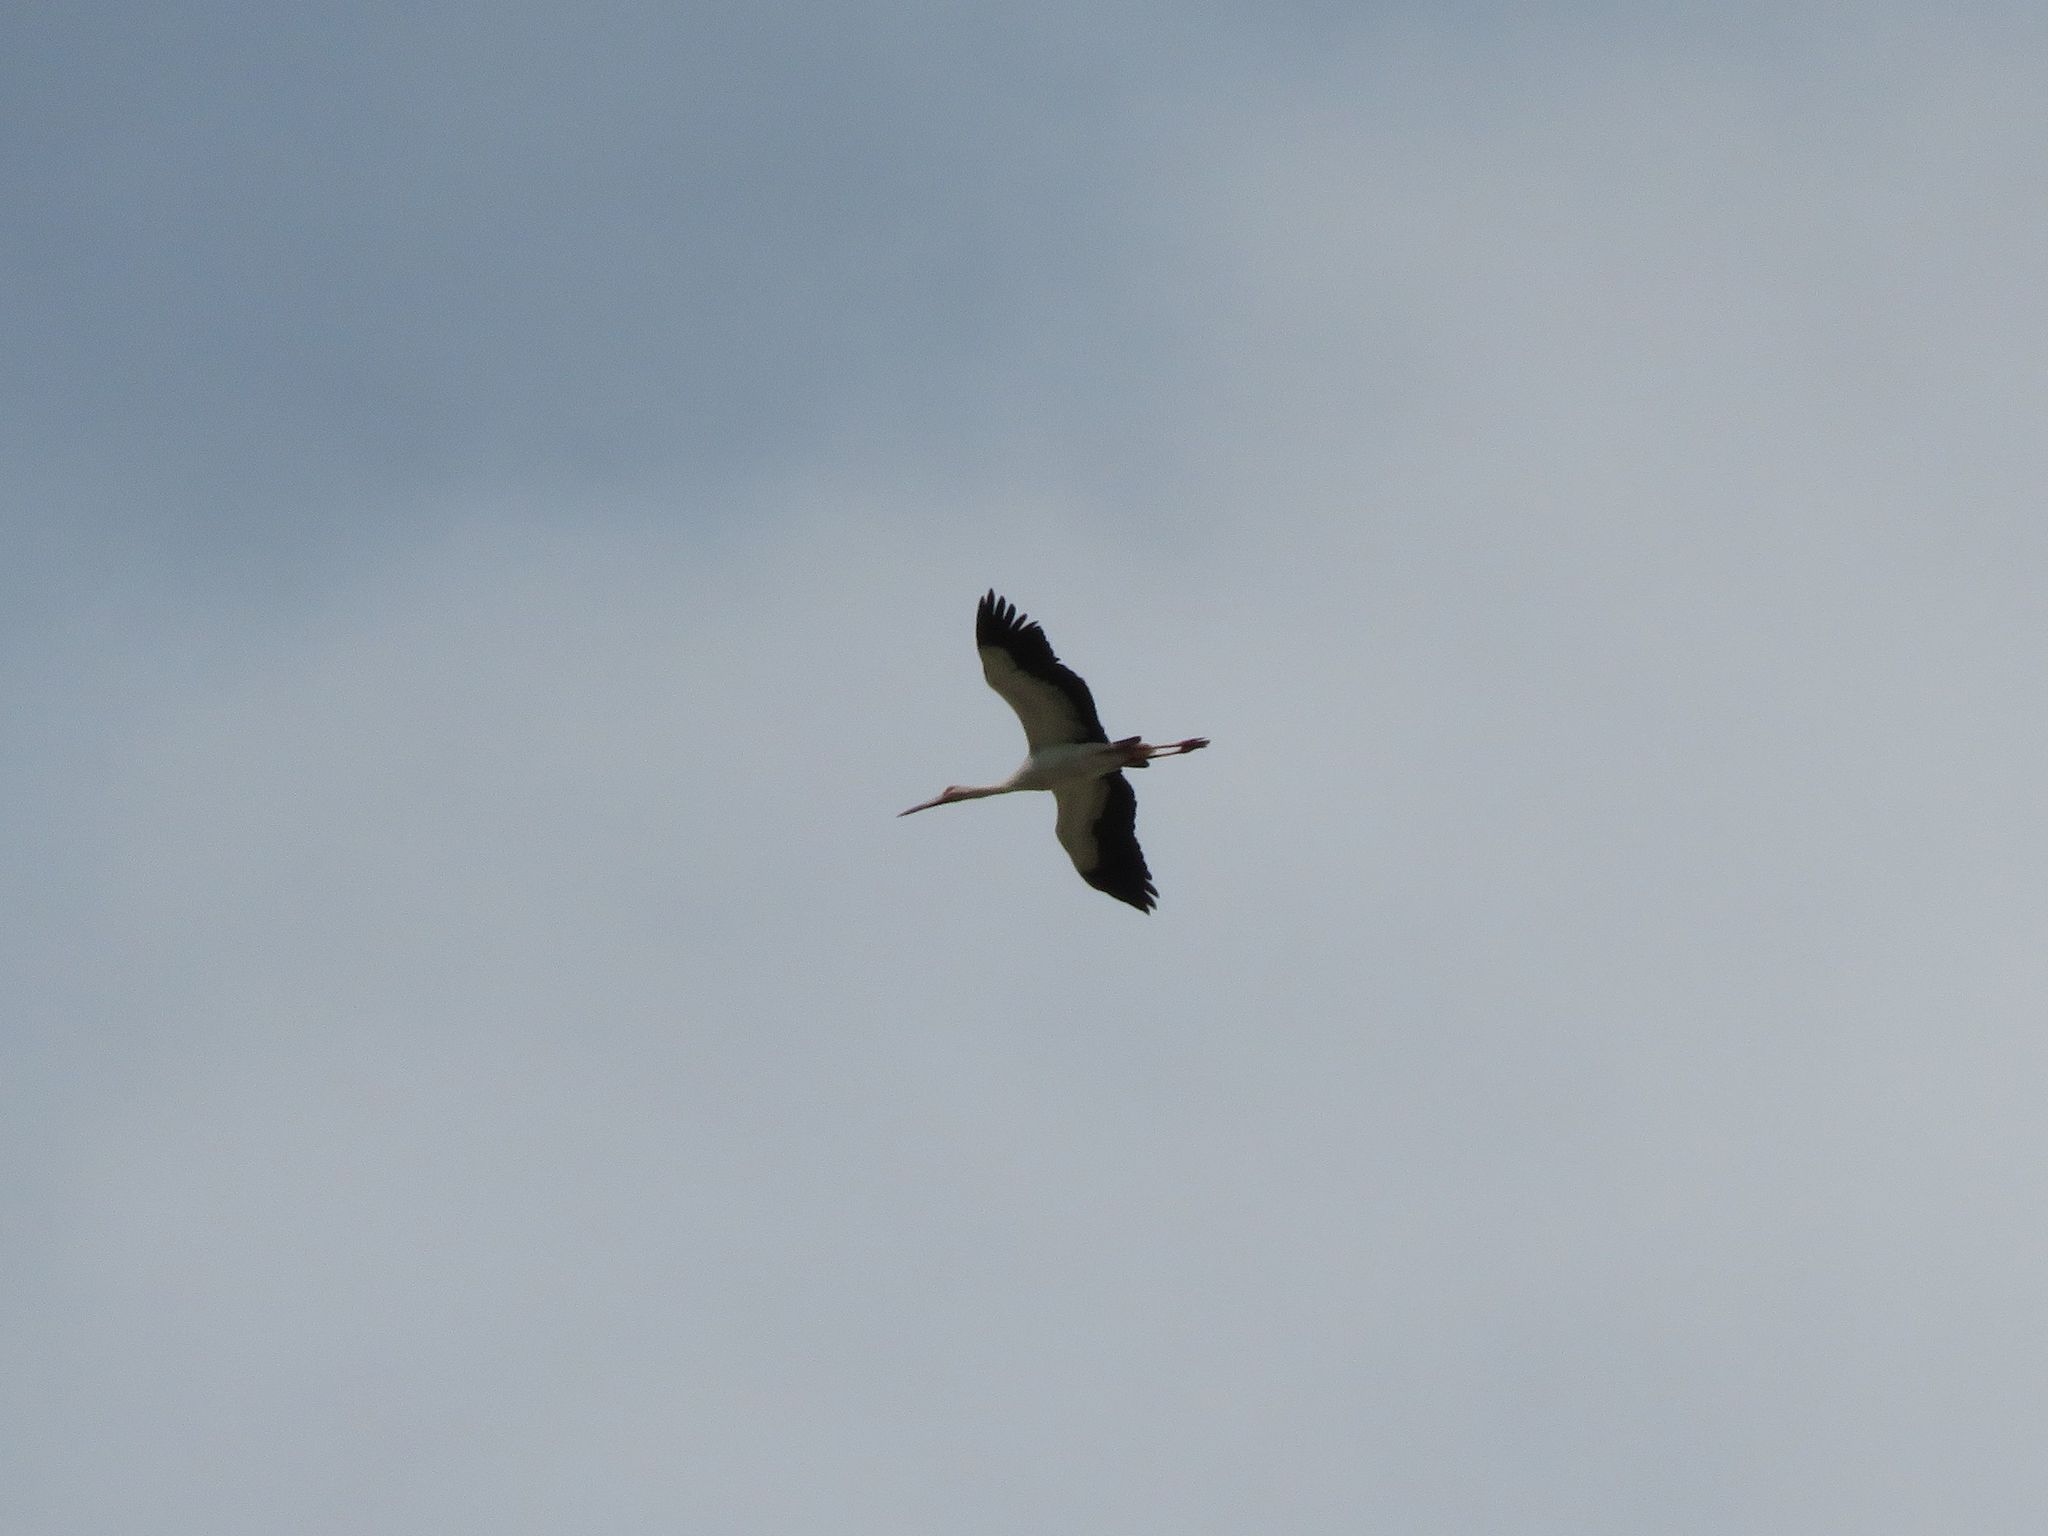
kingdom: Animalia
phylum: Chordata
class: Aves
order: Ciconiiformes
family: Ciconiidae
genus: Ciconia
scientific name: Ciconia maguari
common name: Maguari stork
